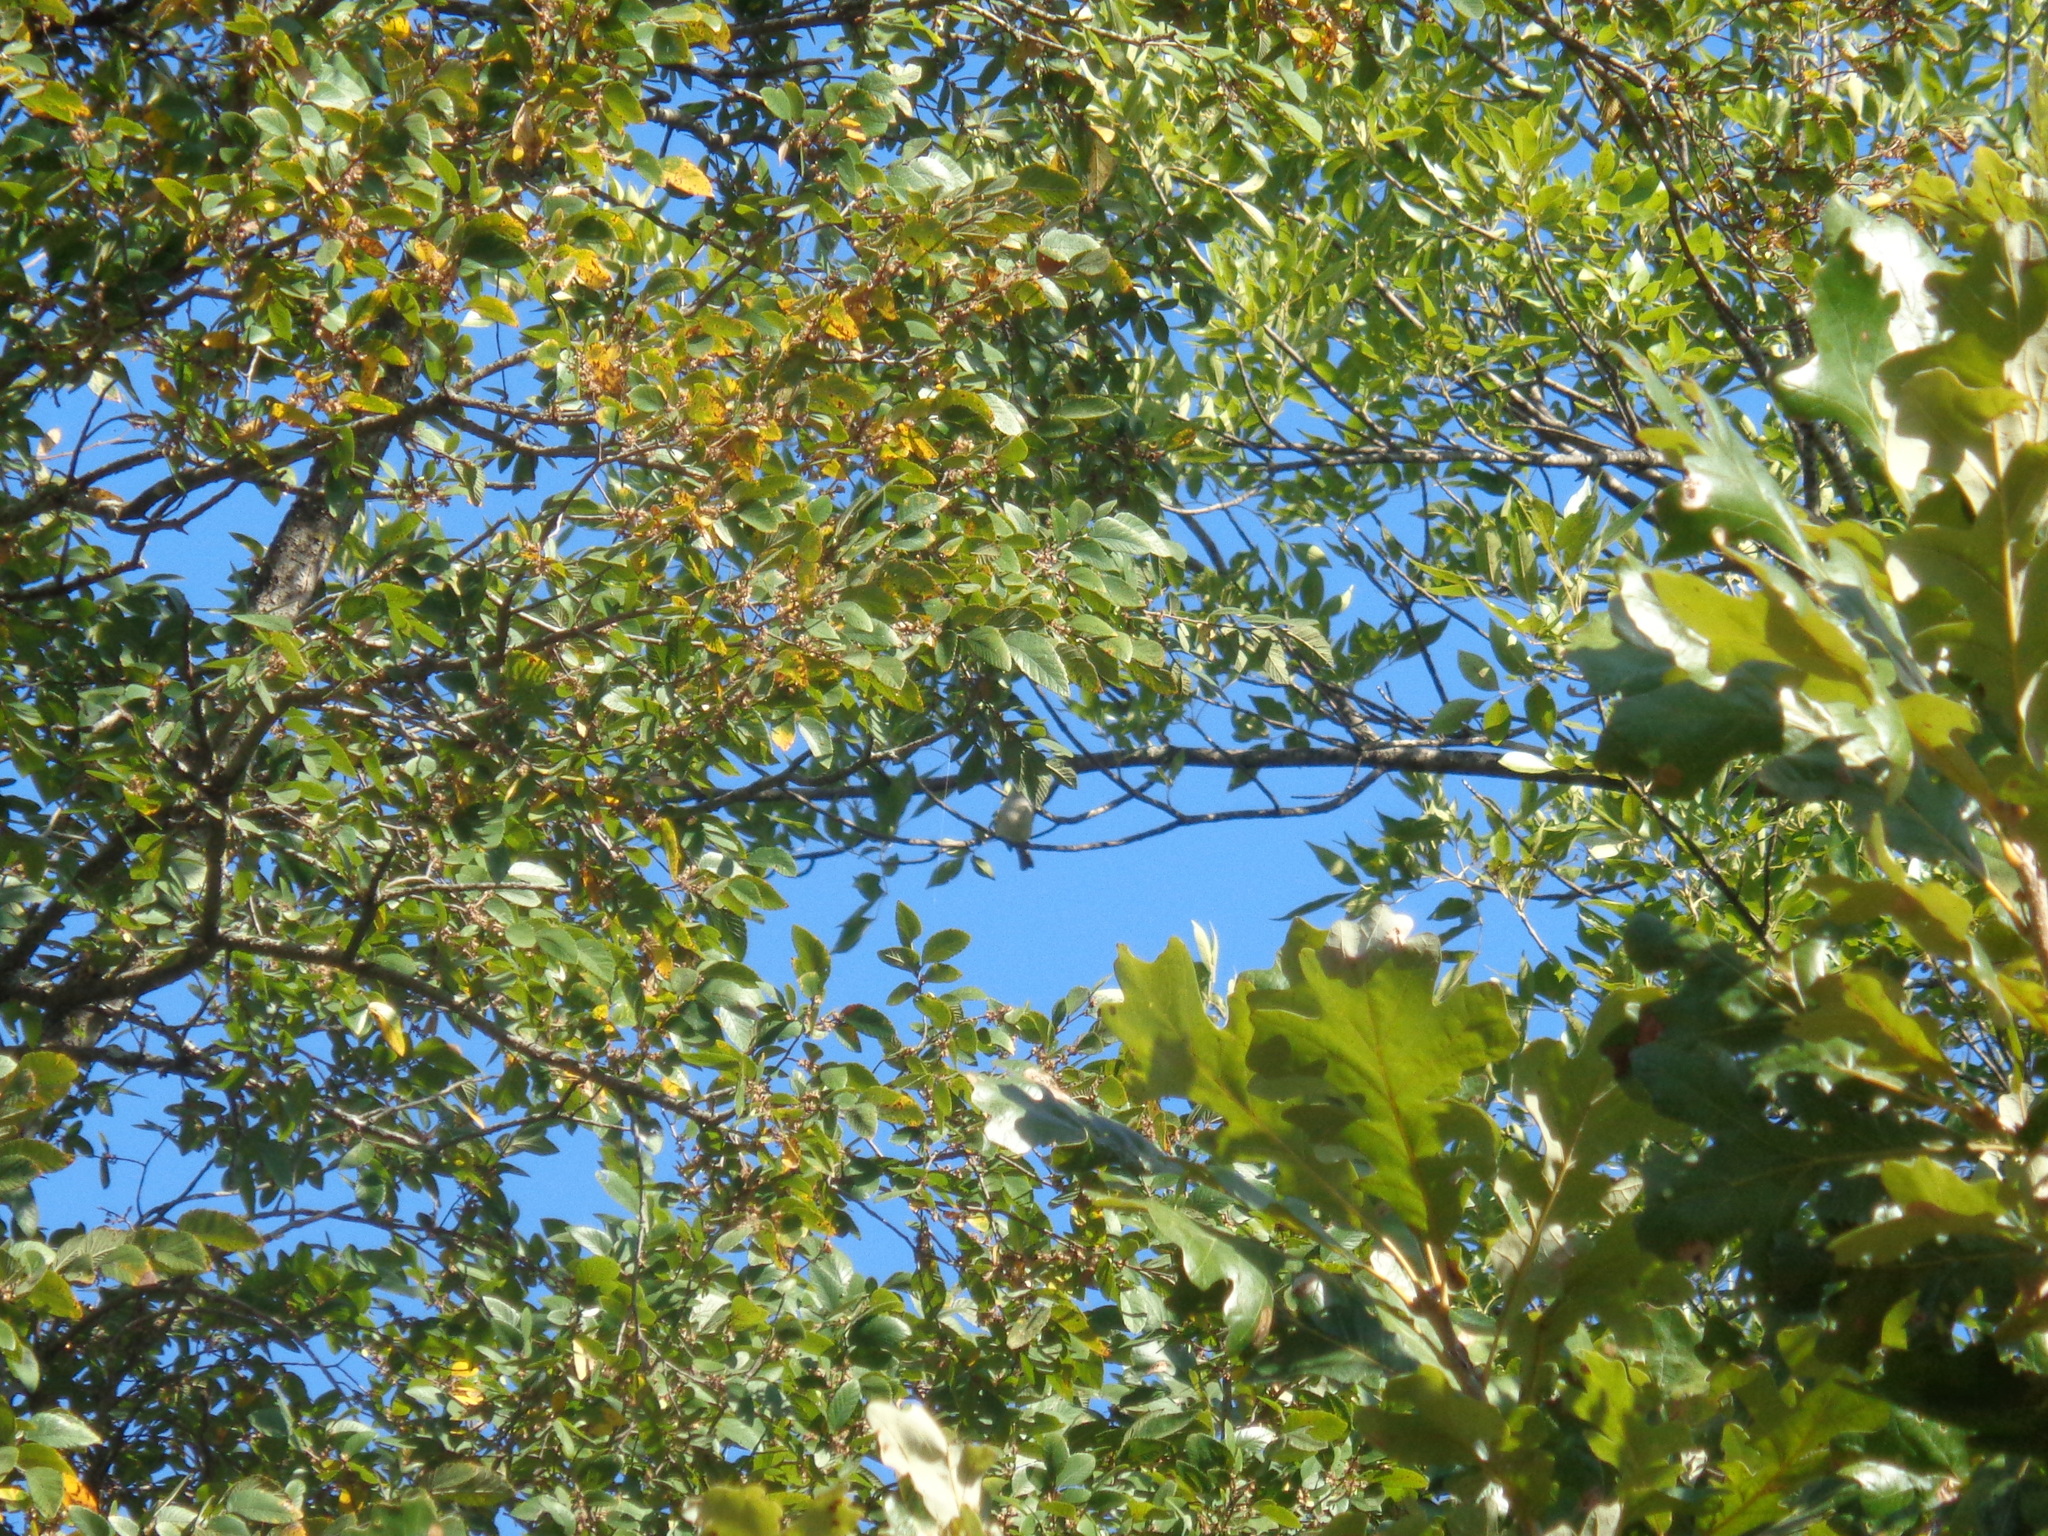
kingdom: Plantae
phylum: Tracheophyta
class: Magnoliopsida
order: Rosales
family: Ulmaceae
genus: Ulmus
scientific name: Ulmus crassifolia
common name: Basket elm
